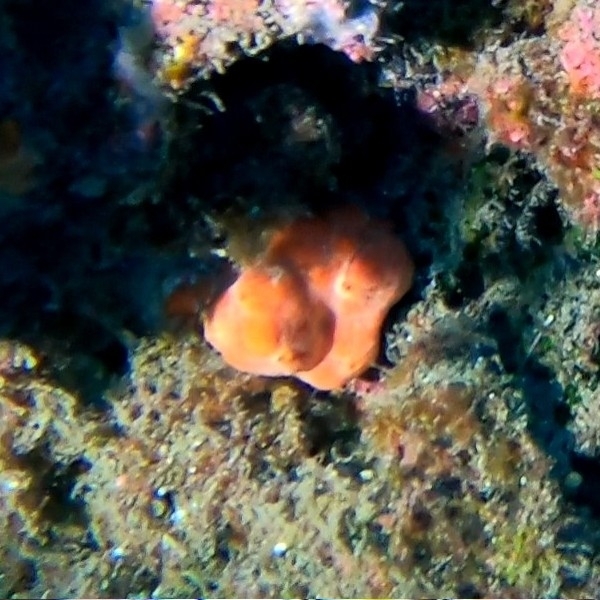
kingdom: Animalia
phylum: Porifera
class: Demospongiae
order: Poecilosclerida
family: Crambeidae
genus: Crambe
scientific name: Crambe crambe
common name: Orange-red encrusting sponge
